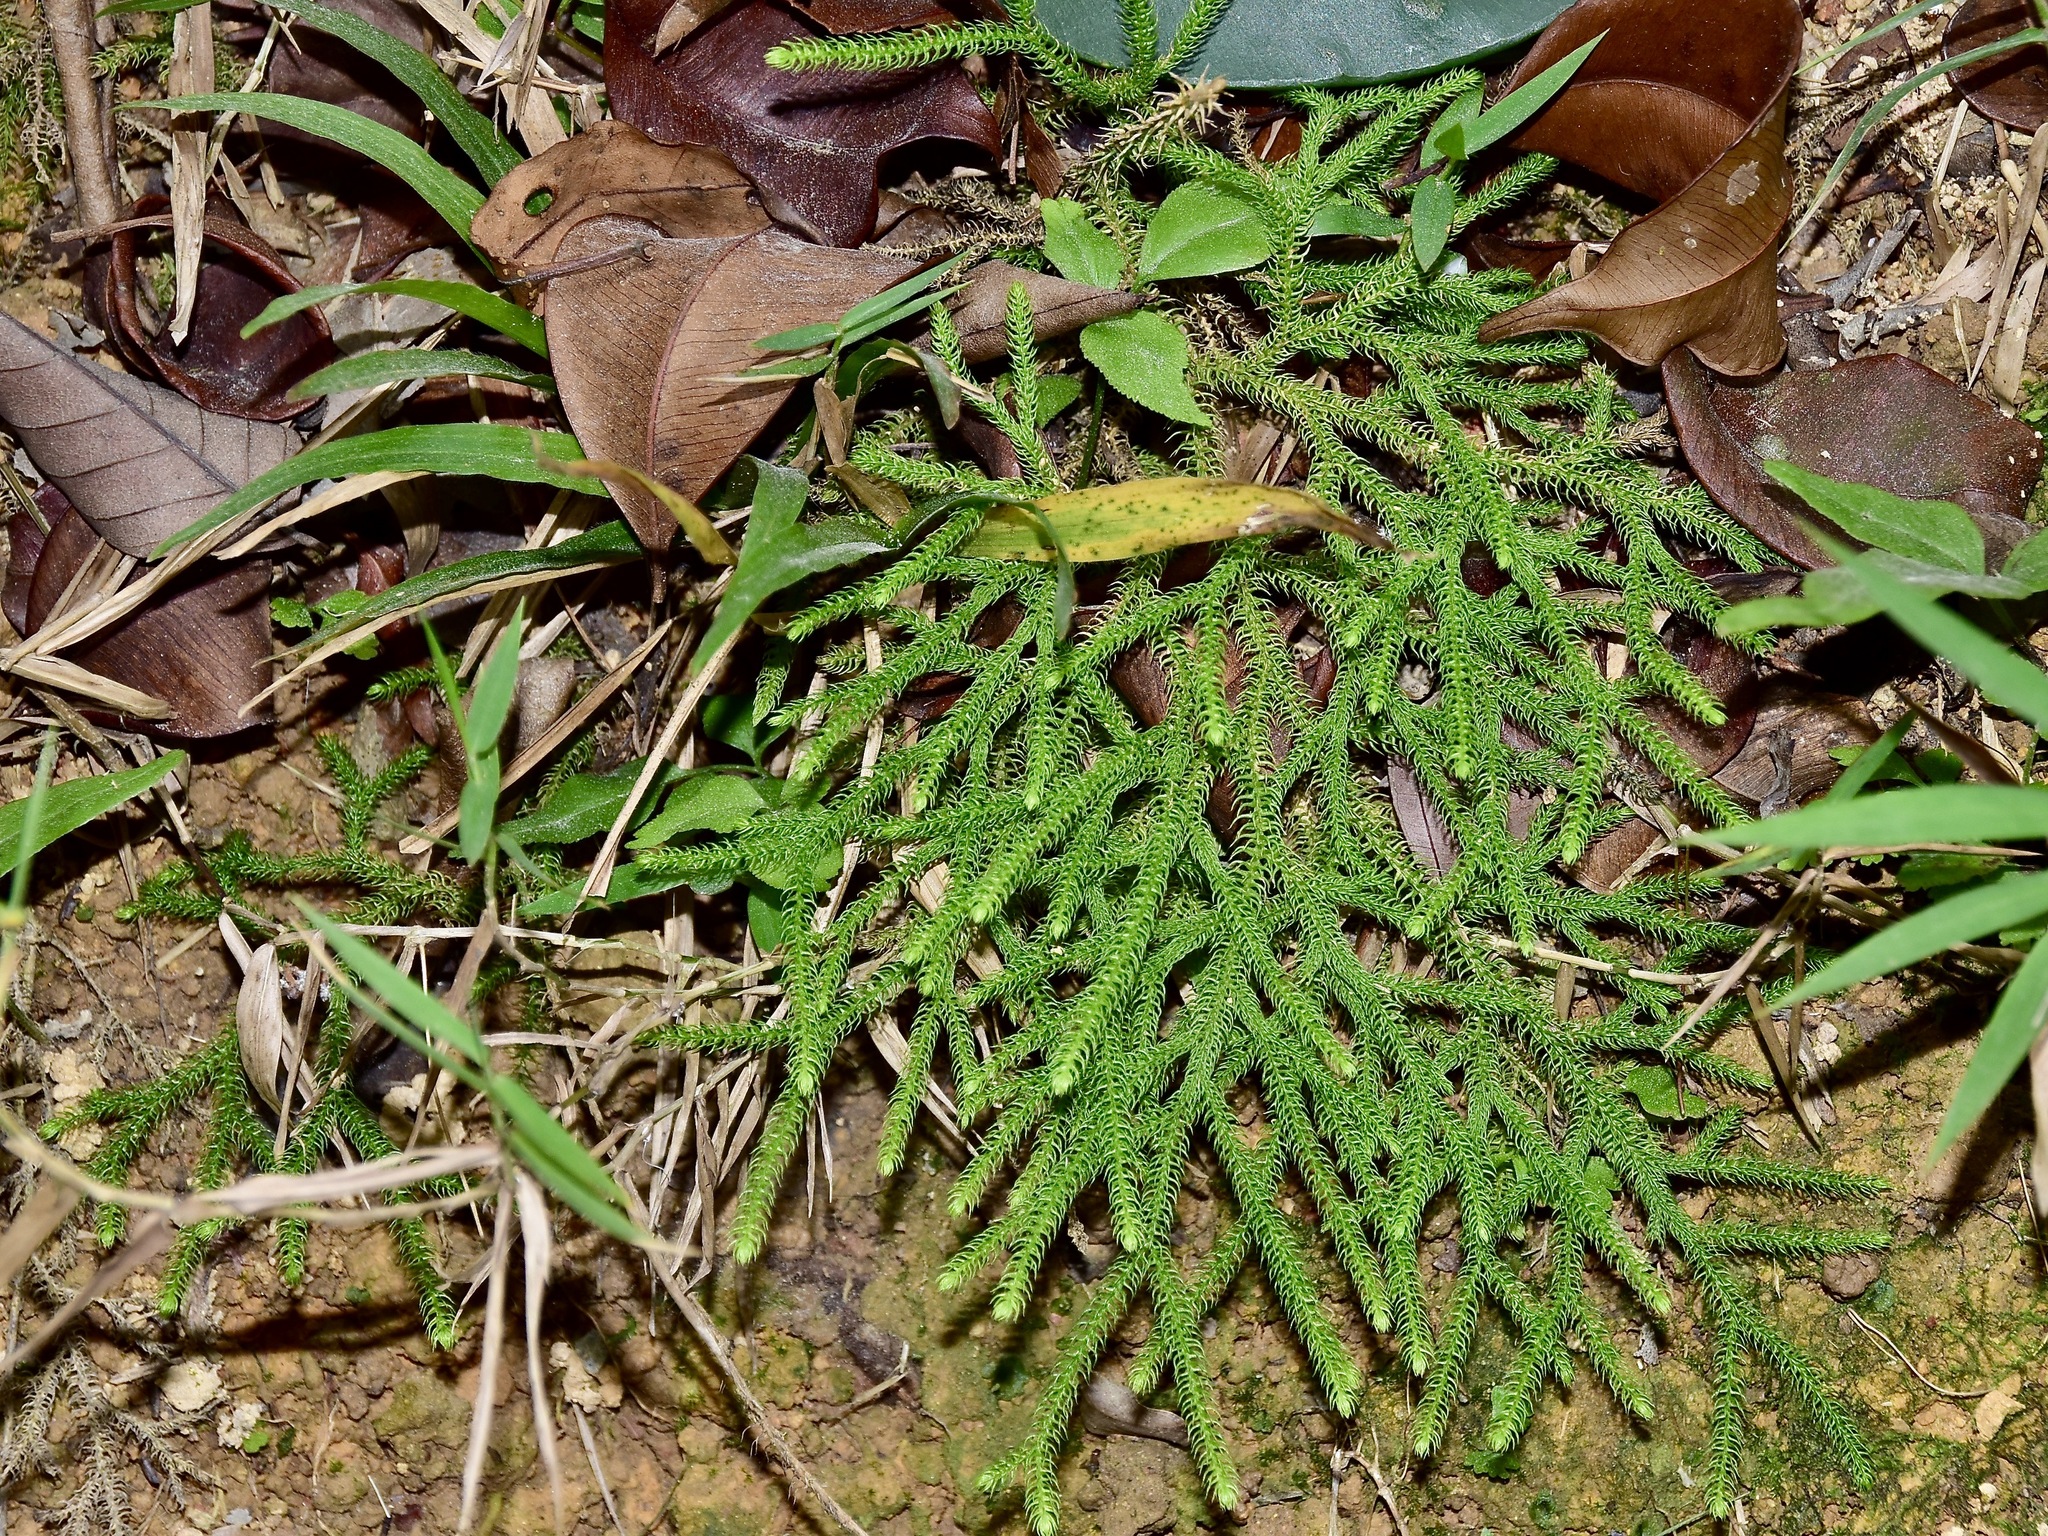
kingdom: Plantae
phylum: Tracheophyta
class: Lycopodiopsida
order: Lycopodiales
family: Lycopodiaceae
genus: Palhinhaea
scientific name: Palhinhaea cernua
